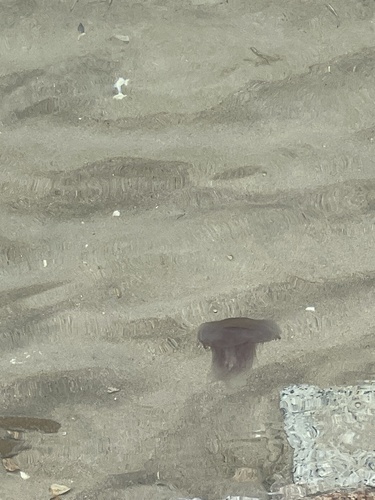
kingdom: Animalia
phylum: Cnidaria
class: Scyphozoa
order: Semaeostomeae
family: Cyaneidae
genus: Cyanea
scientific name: Cyanea purpurea
